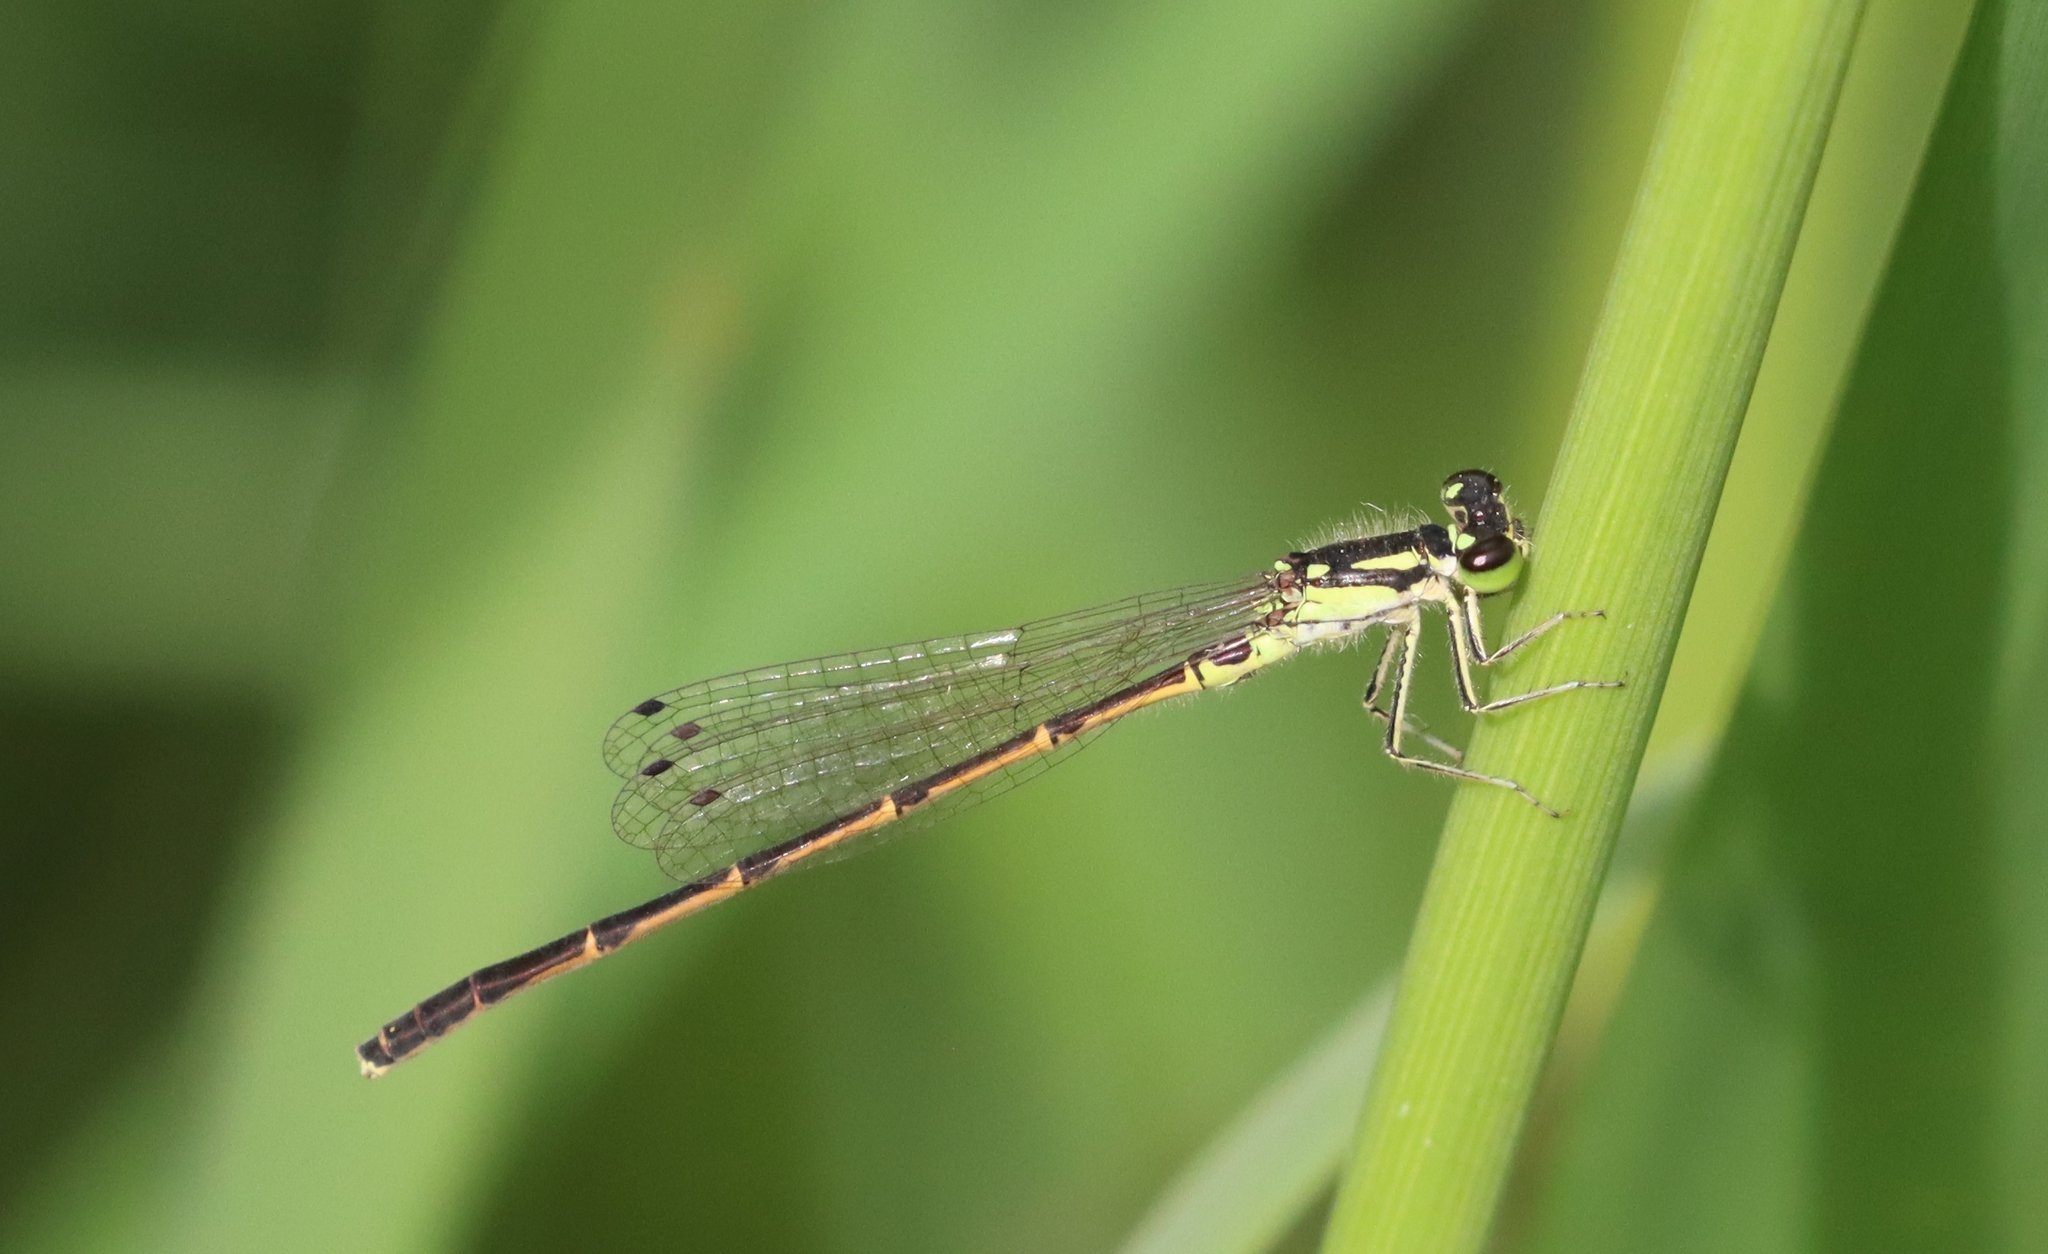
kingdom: Animalia
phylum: Arthropoda
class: Insecta
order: Odonata
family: Coenagrionidae
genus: Ischnura
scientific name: Ischnura posita
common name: Fragile forktail
